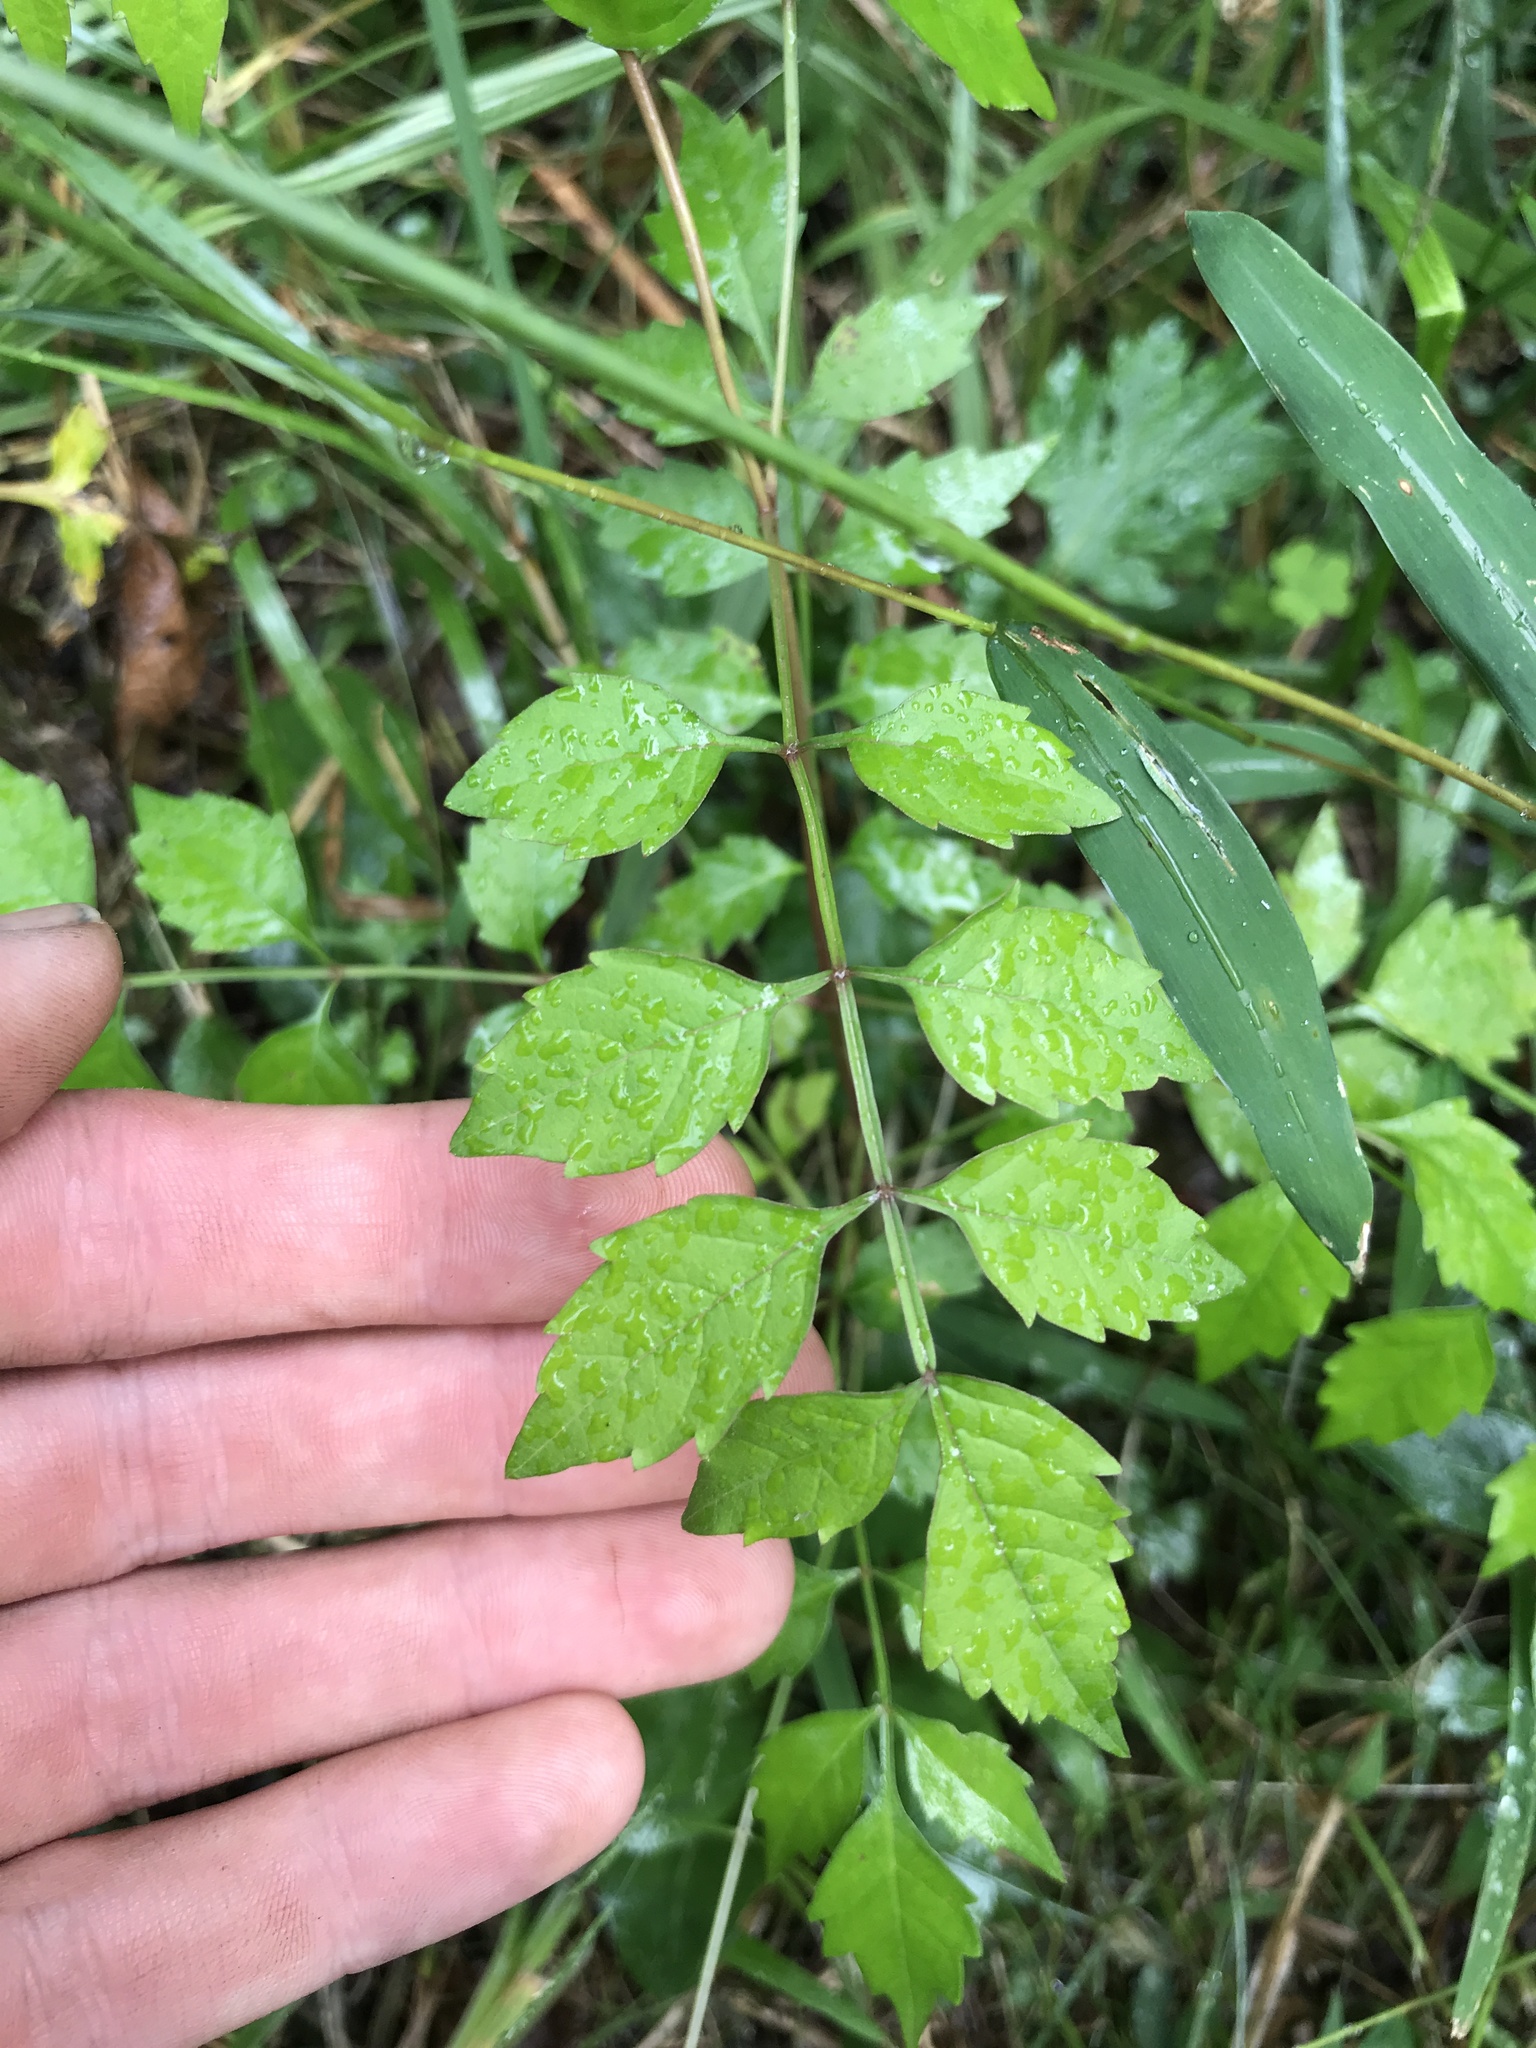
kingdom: Plantae
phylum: Tracheophyta
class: Magnoliopsida
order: Lamiales
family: Bignoniaceae
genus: Campsis
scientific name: Campsis radicans
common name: Trumpet-creeper
